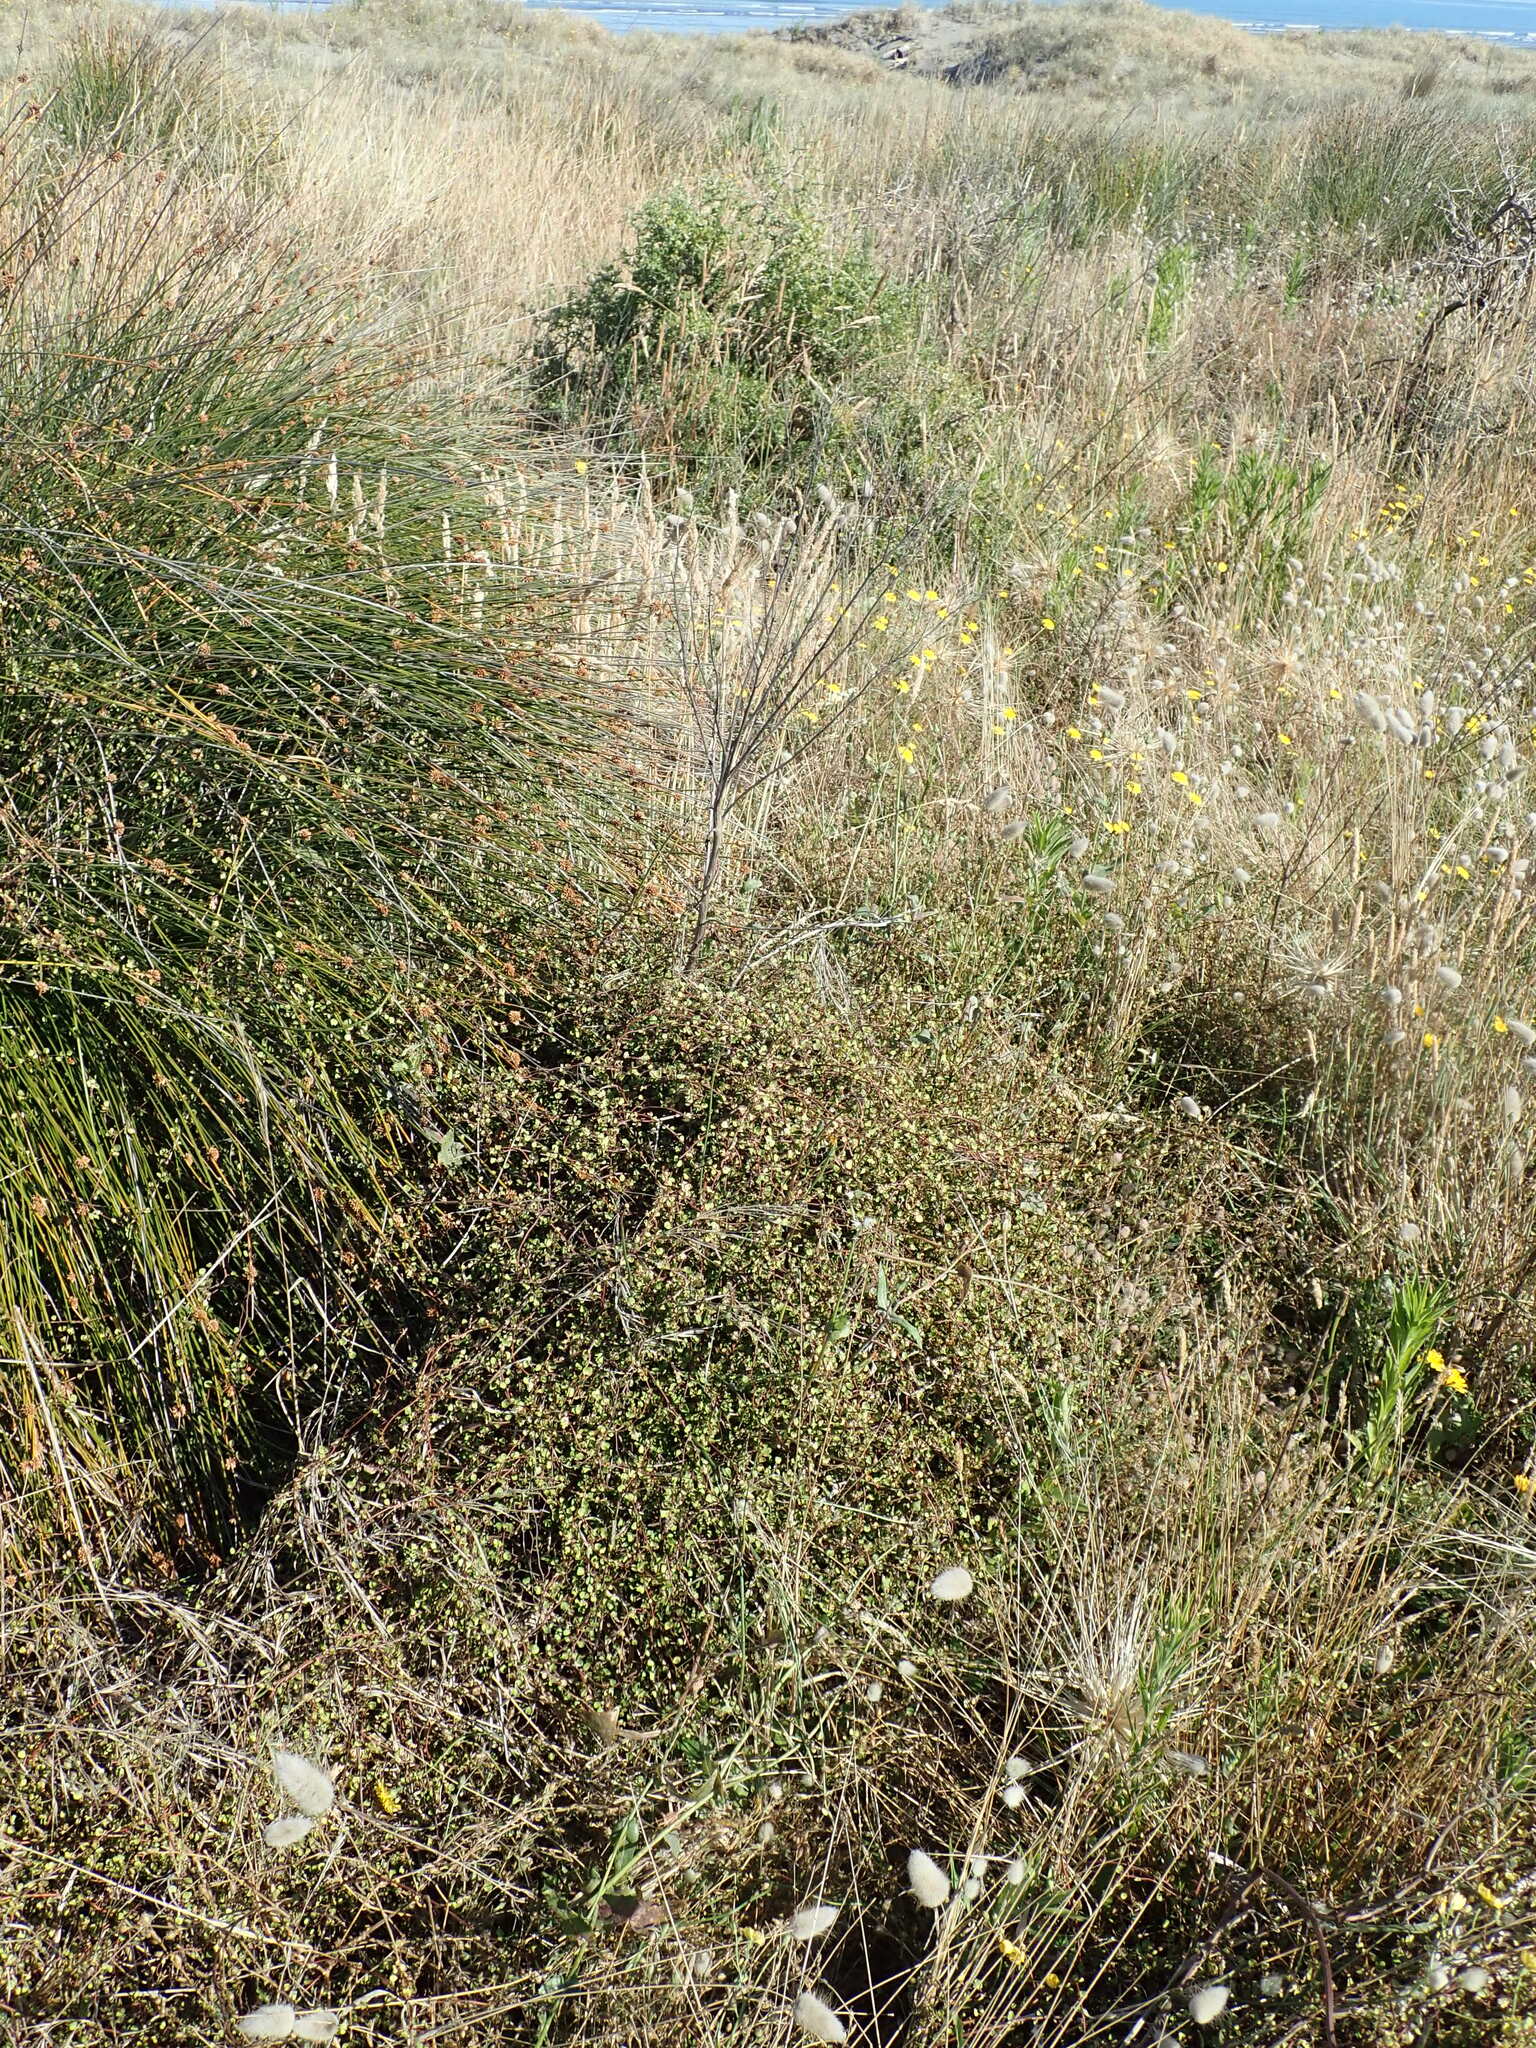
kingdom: Plantae
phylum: Tracheophyta
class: Magnoliopsida
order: Caryophyllales
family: Polygonaceae
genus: Muehlenbeckia
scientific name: Muehlenbeckia complexa
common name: Wireplant
